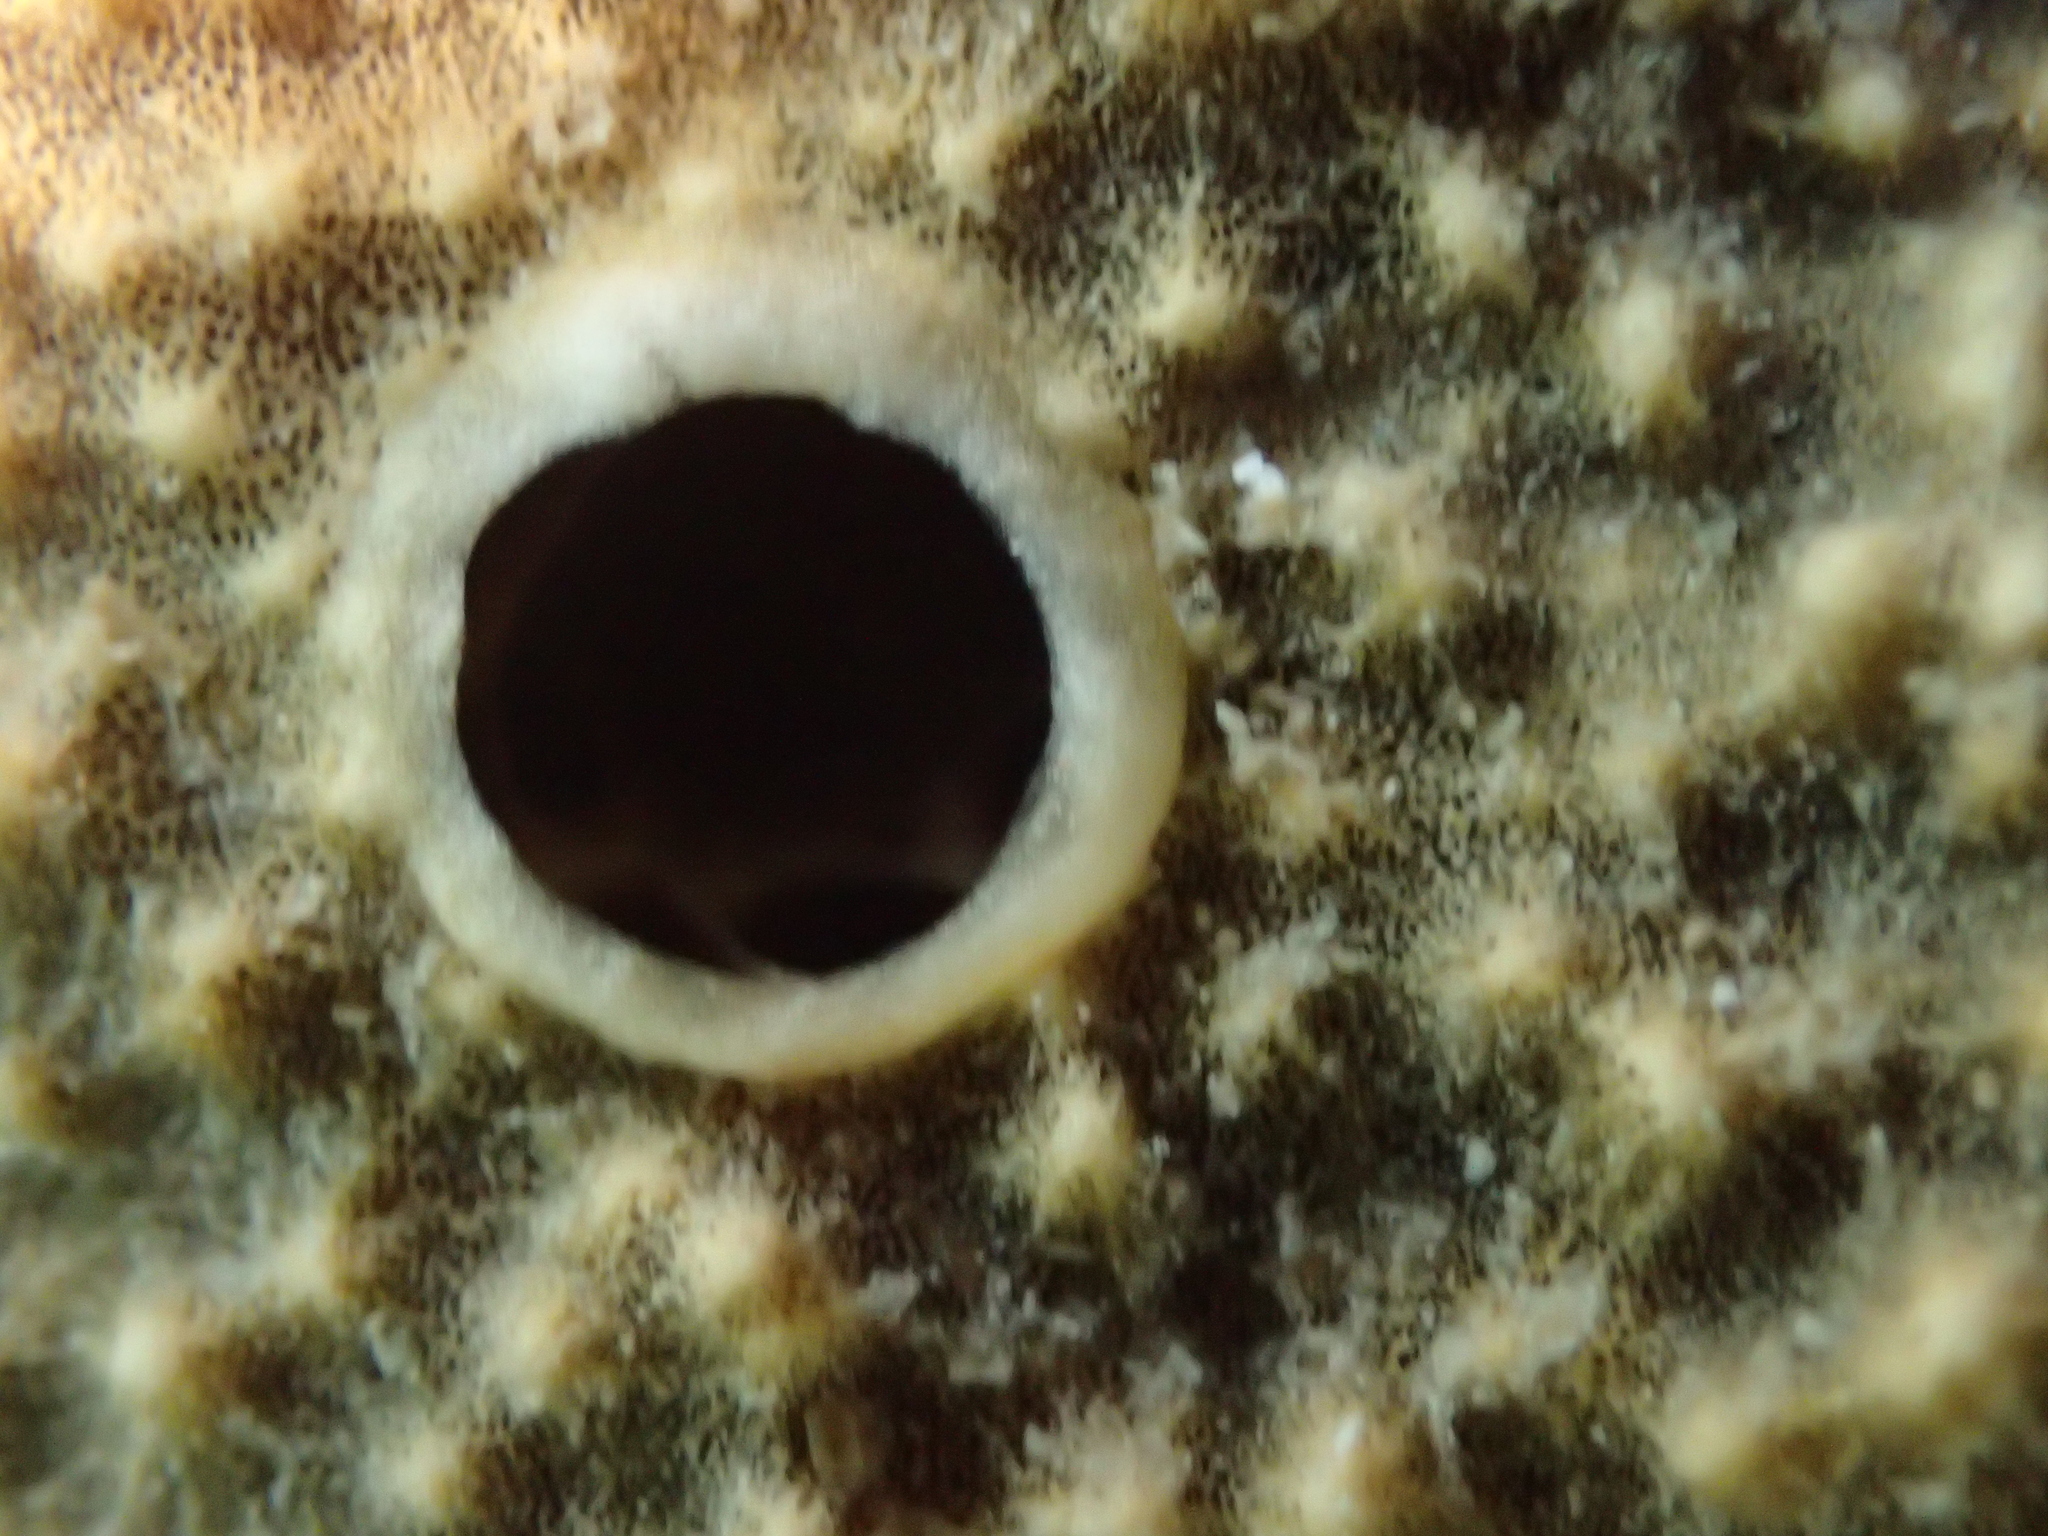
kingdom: Animalia
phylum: Porifera
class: Demospongiae
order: Dictyoceratida
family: Irciniidae
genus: Sarcotragus
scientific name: Sarcotragus fasciculatus
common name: Stinker sponge
